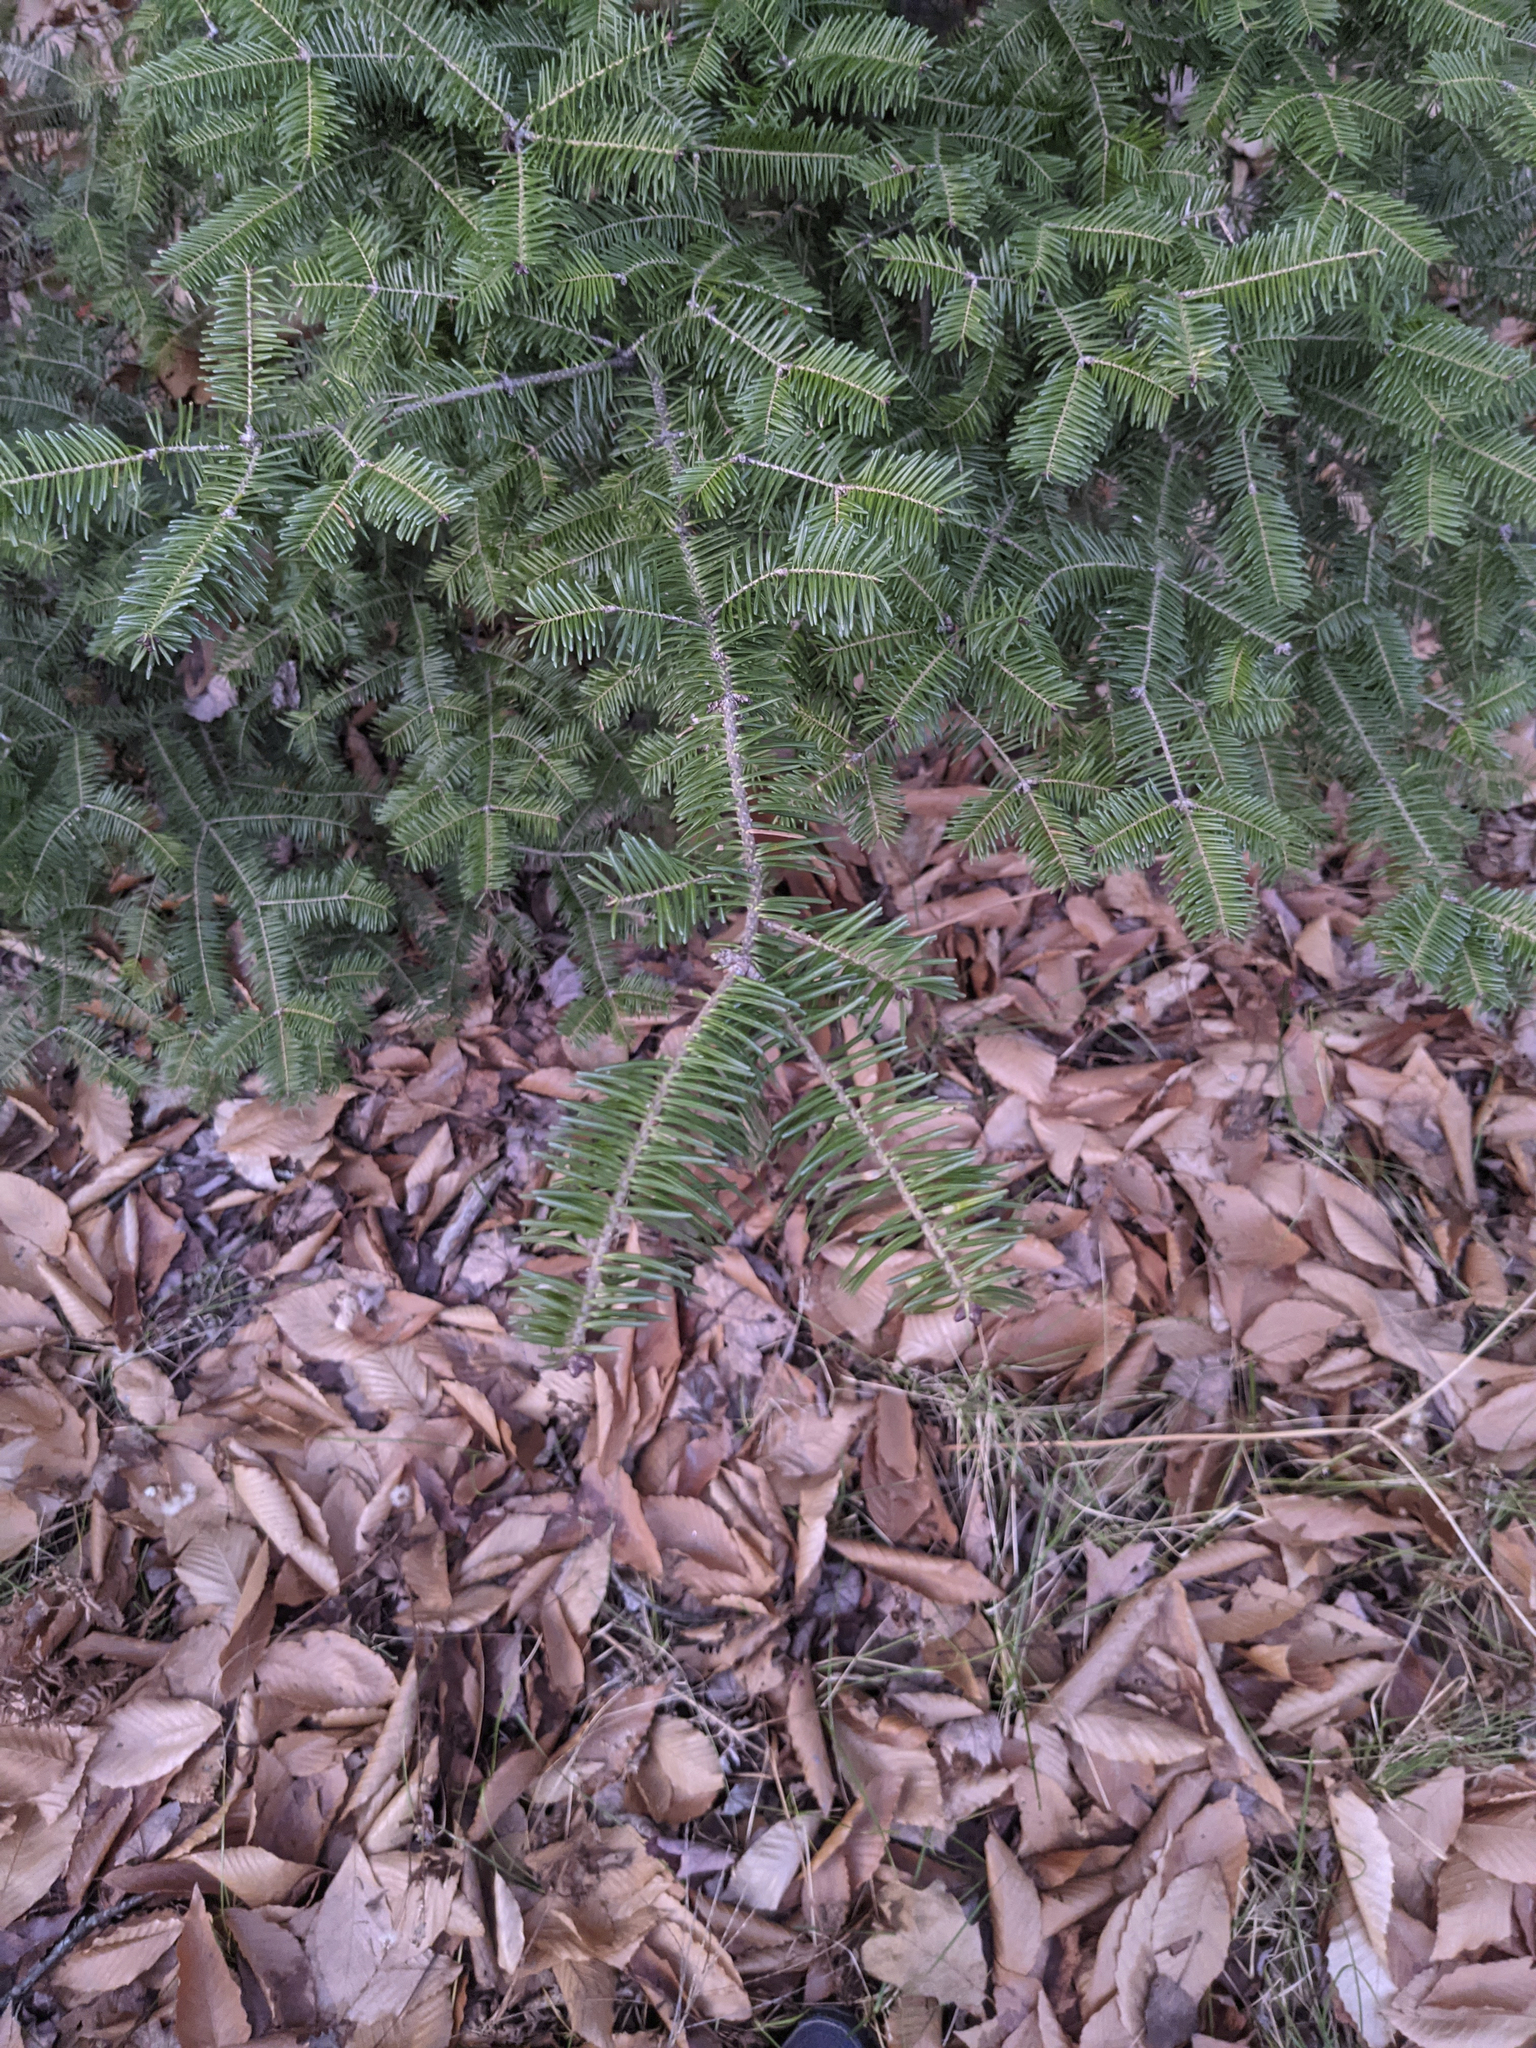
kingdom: Plantae
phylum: Tracheophyta
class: Pinopsida
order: Pinales
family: Pinaceae
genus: Abies
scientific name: Abies balsamea
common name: Balsam fir
